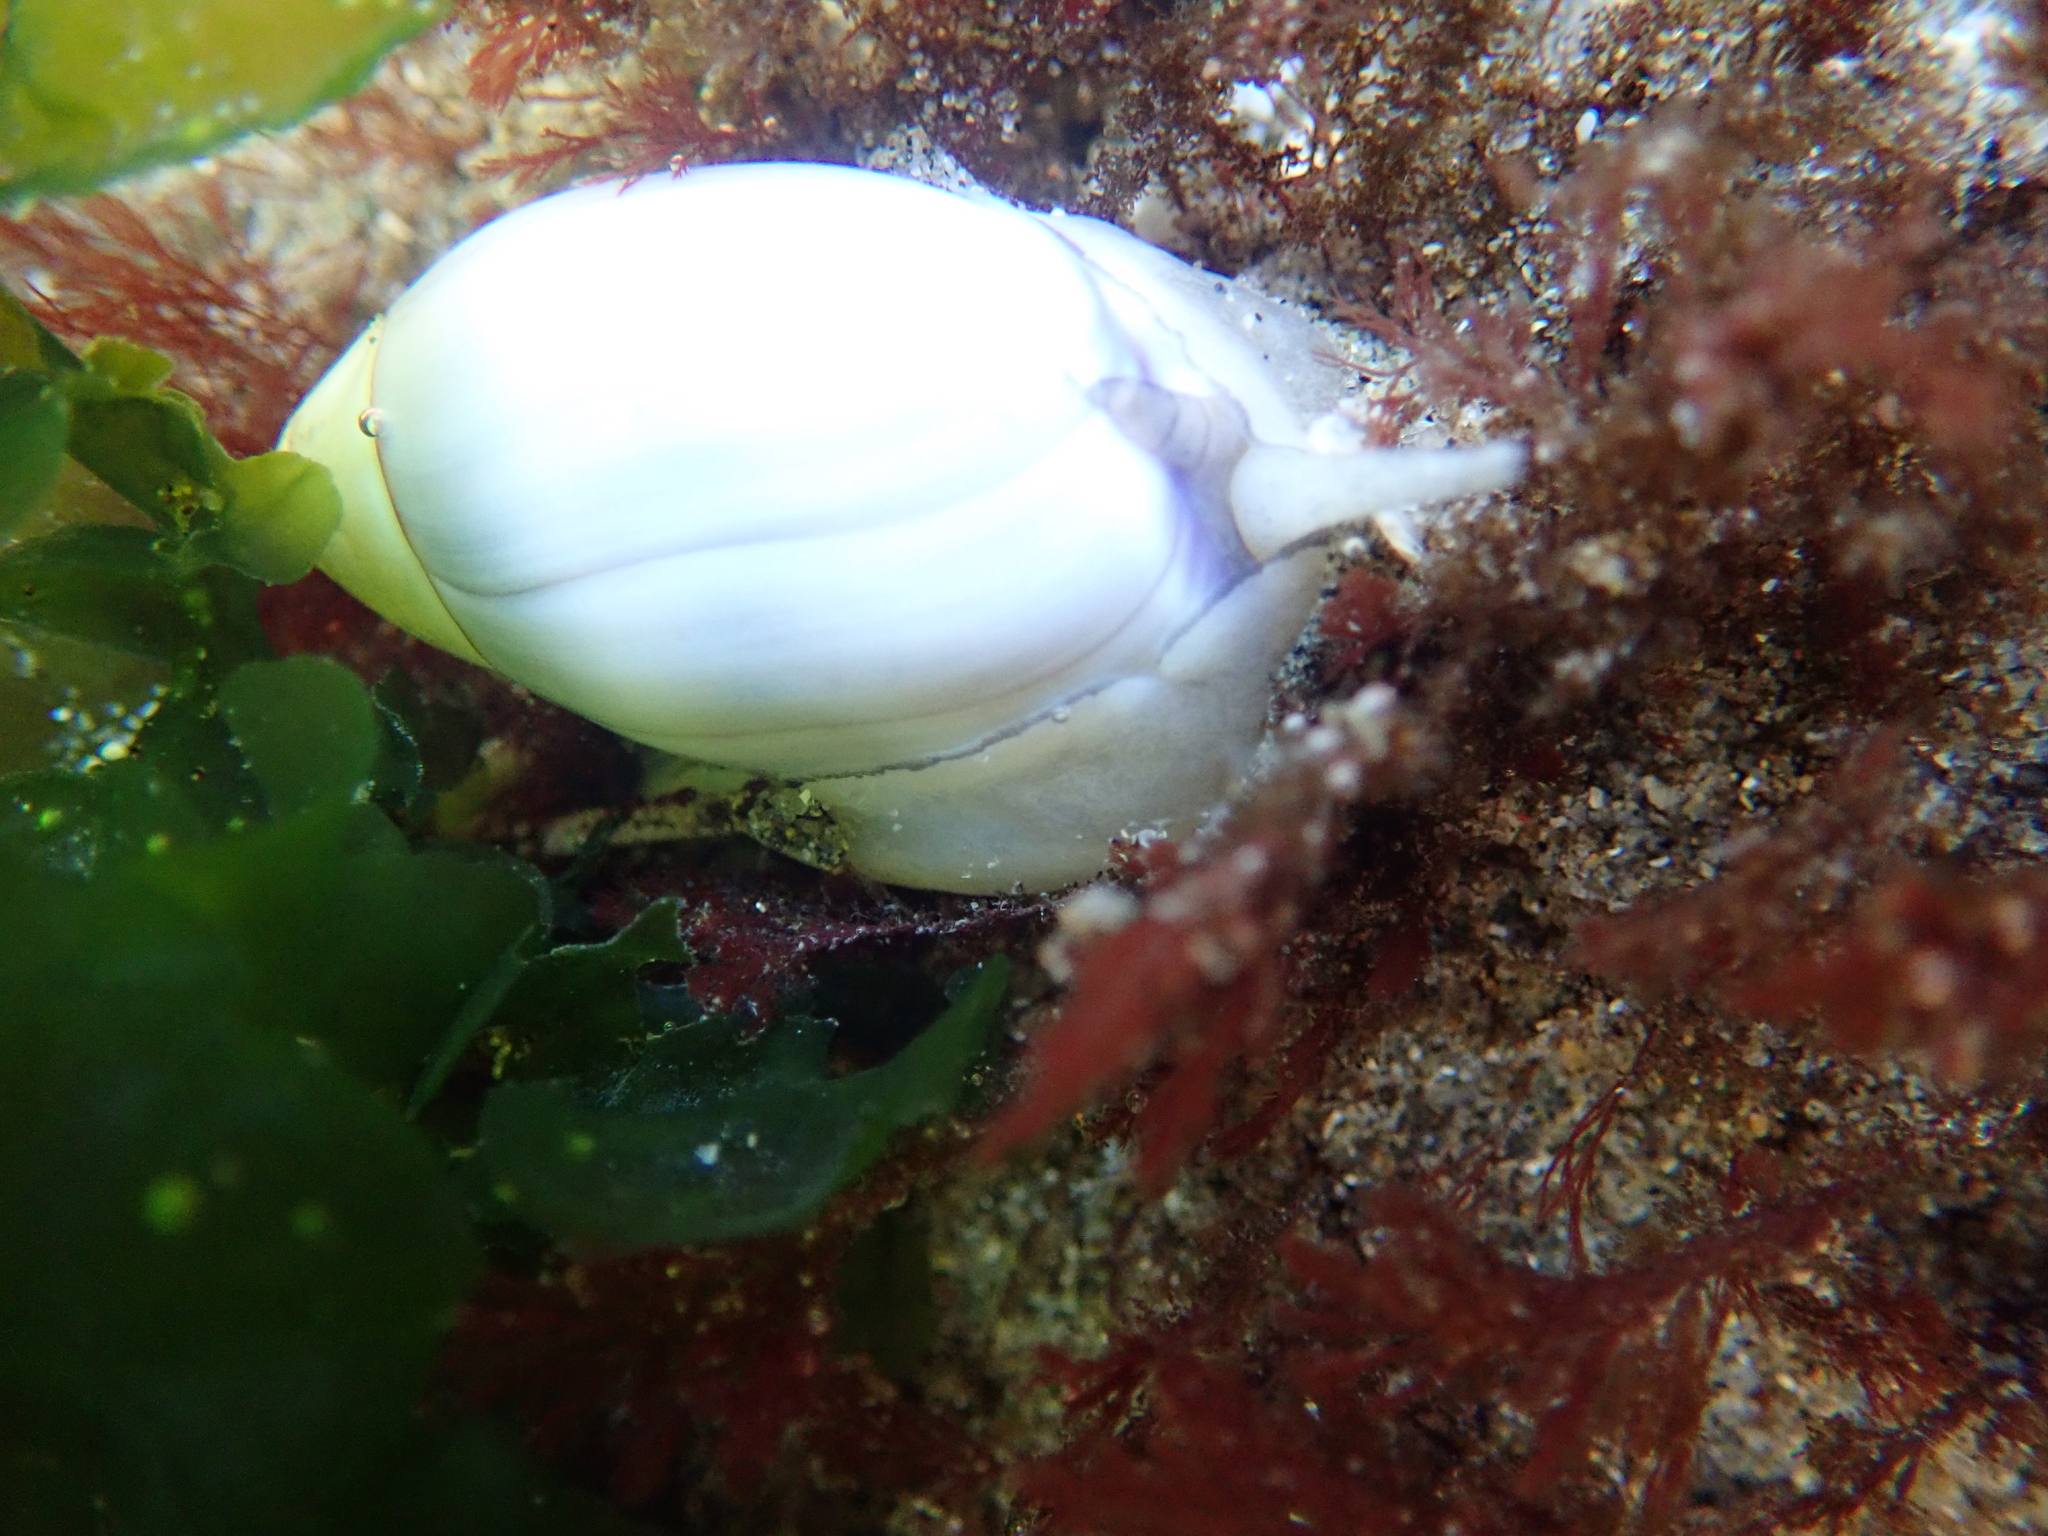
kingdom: Animalia
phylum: Mollusca
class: Gastropoda
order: Neogastropoda
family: Olividae
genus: Callianax
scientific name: Callianax biplicata
